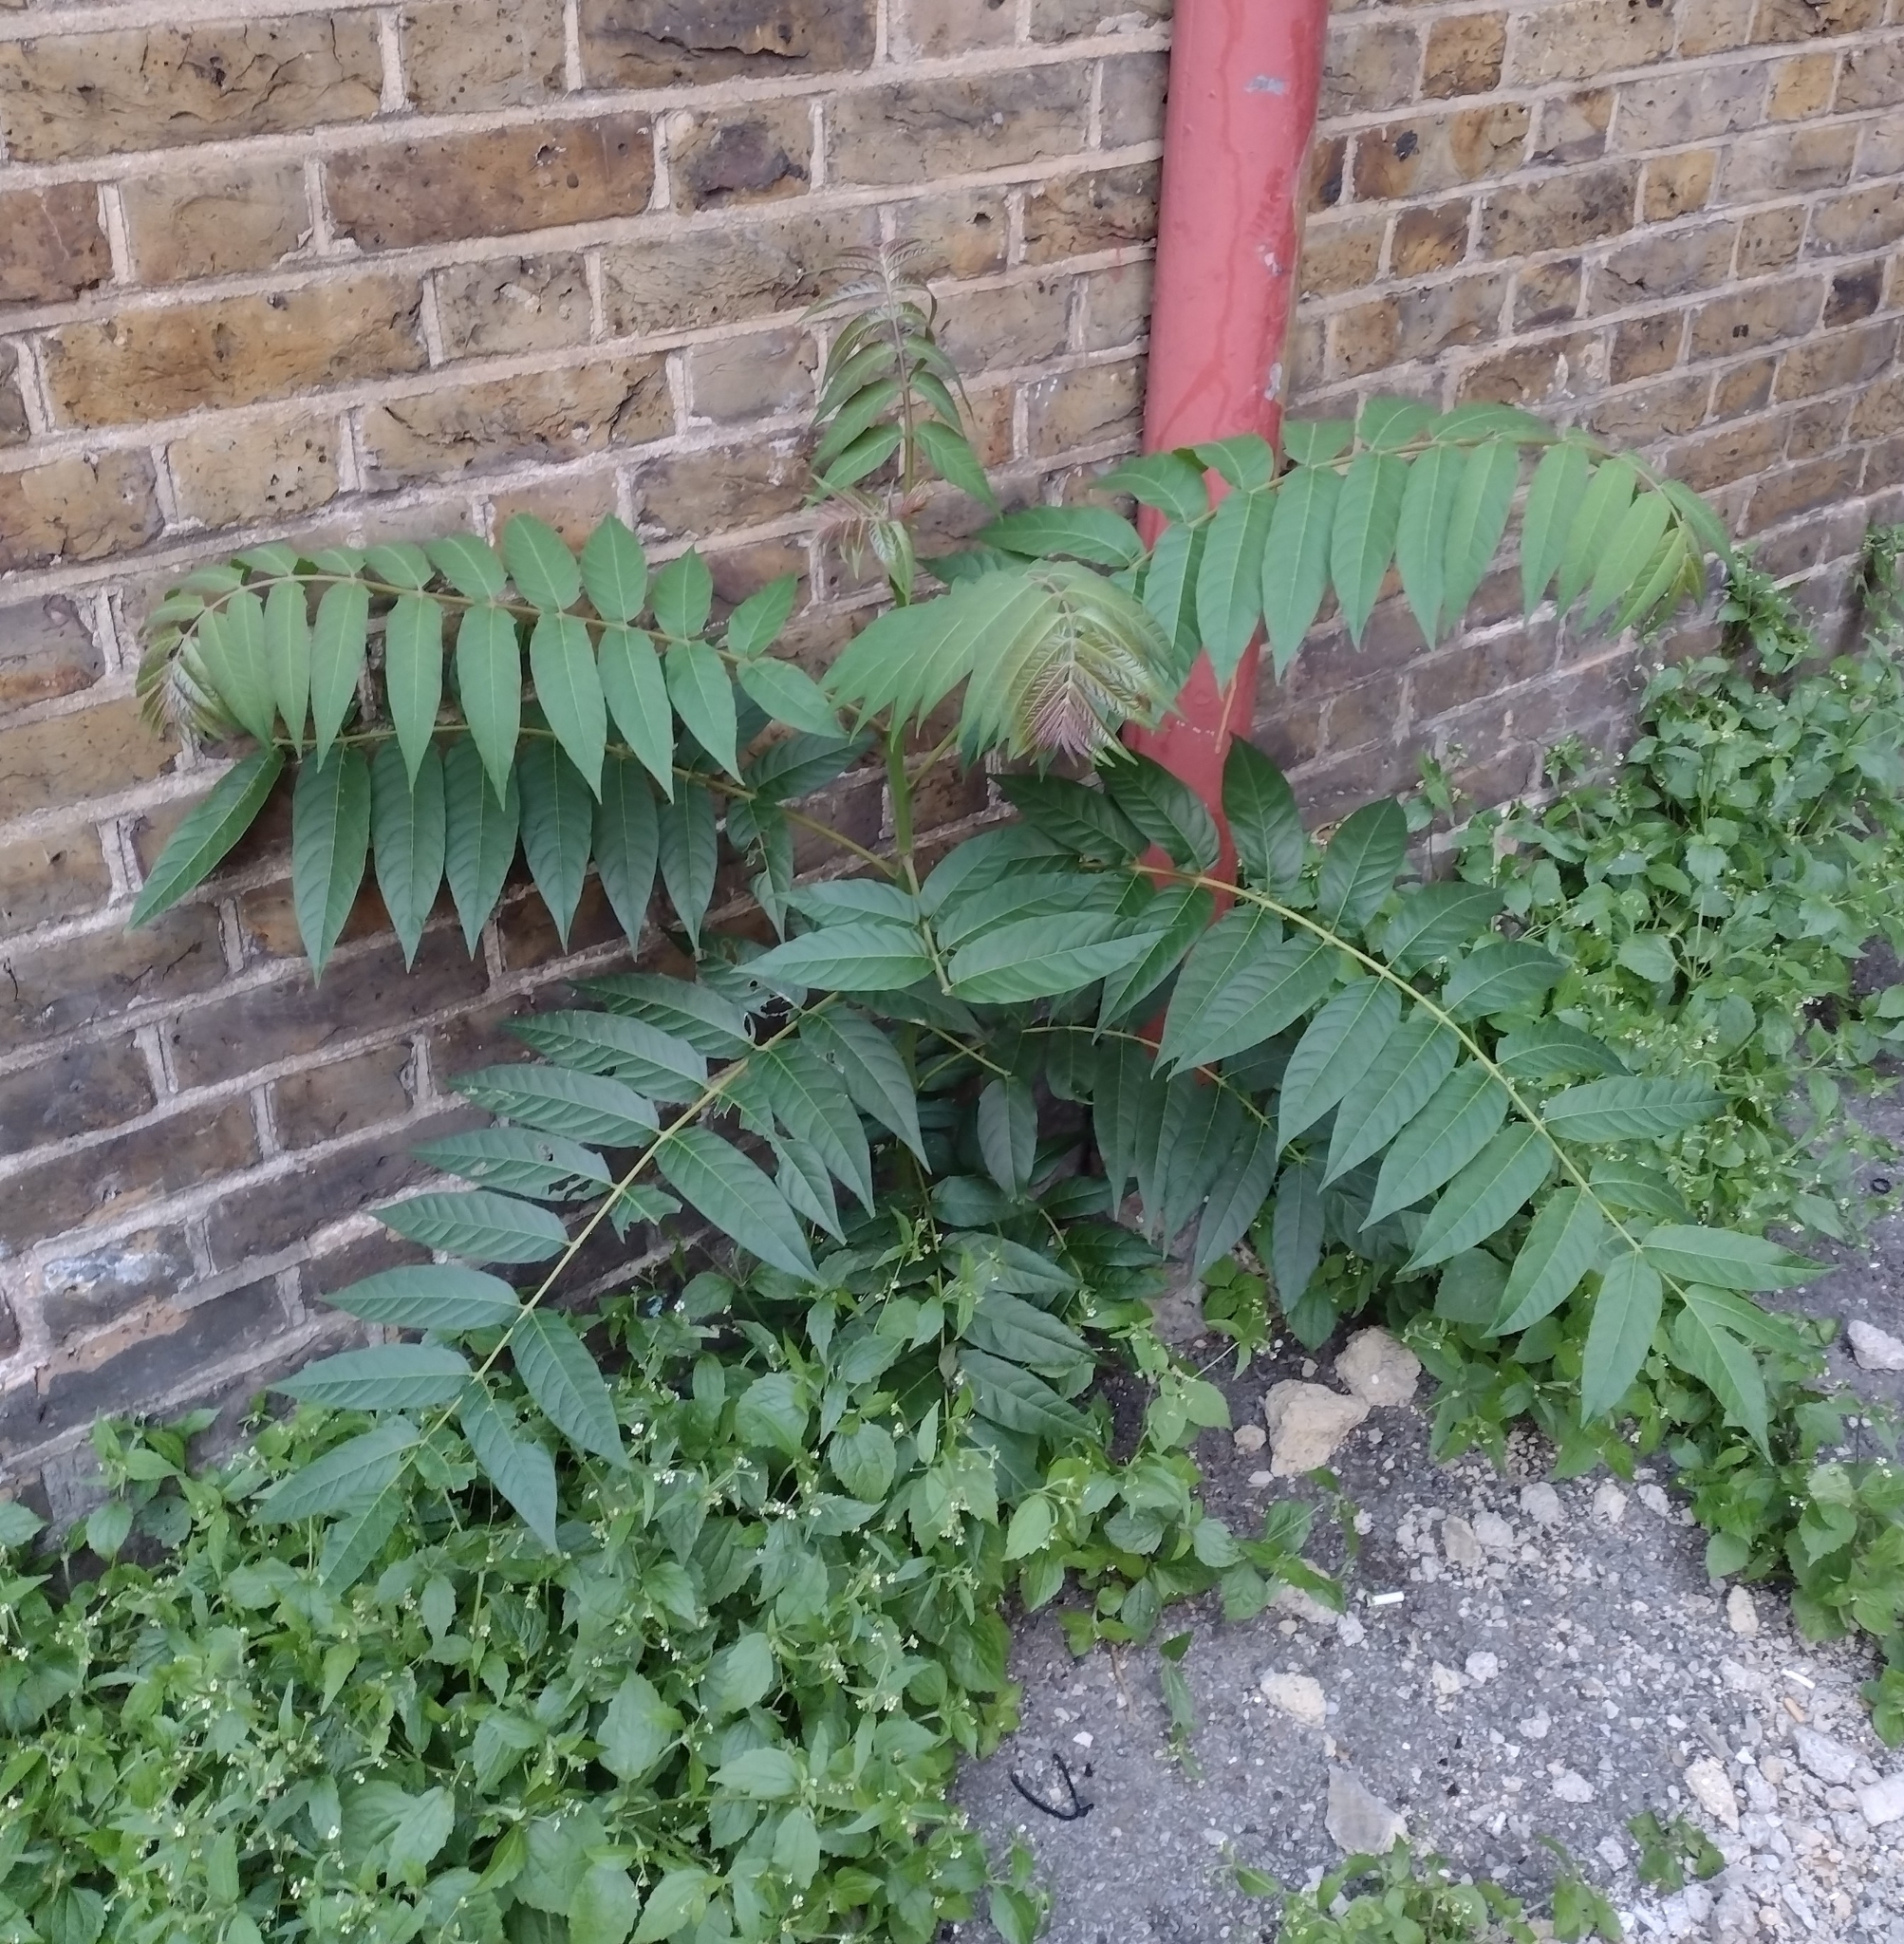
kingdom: Plantae
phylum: Tracheophyta
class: Magnoliopsida
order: Sapindales
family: Simaroubaceae
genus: Ailanthus
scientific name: Ailanthus altissima
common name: Tree-of-heaven
